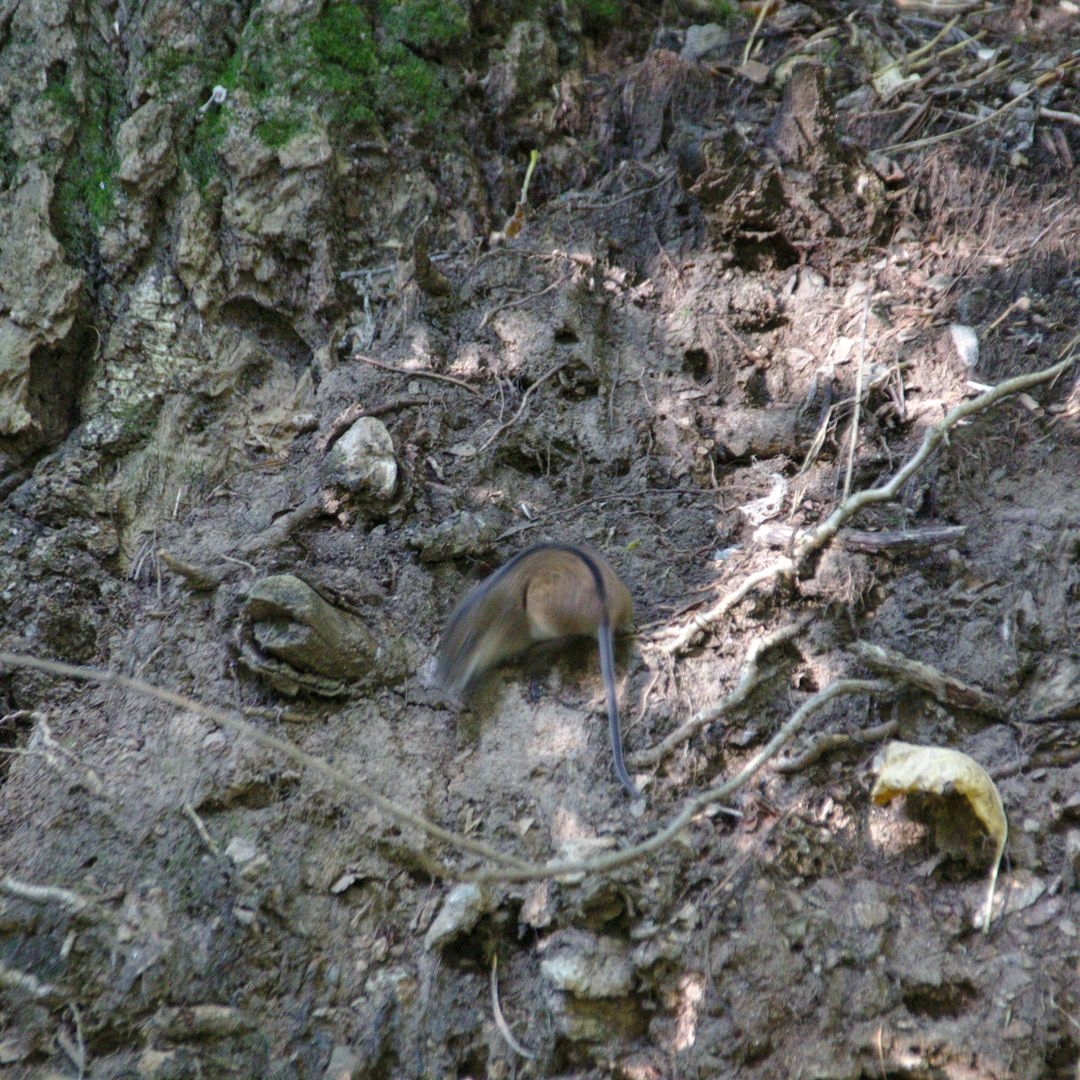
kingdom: Animalia
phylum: Chordata
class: Mammalia
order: Rodentia
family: Muridae
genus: Apodemus
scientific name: Apodemus agrarius
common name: Striped field mouse
